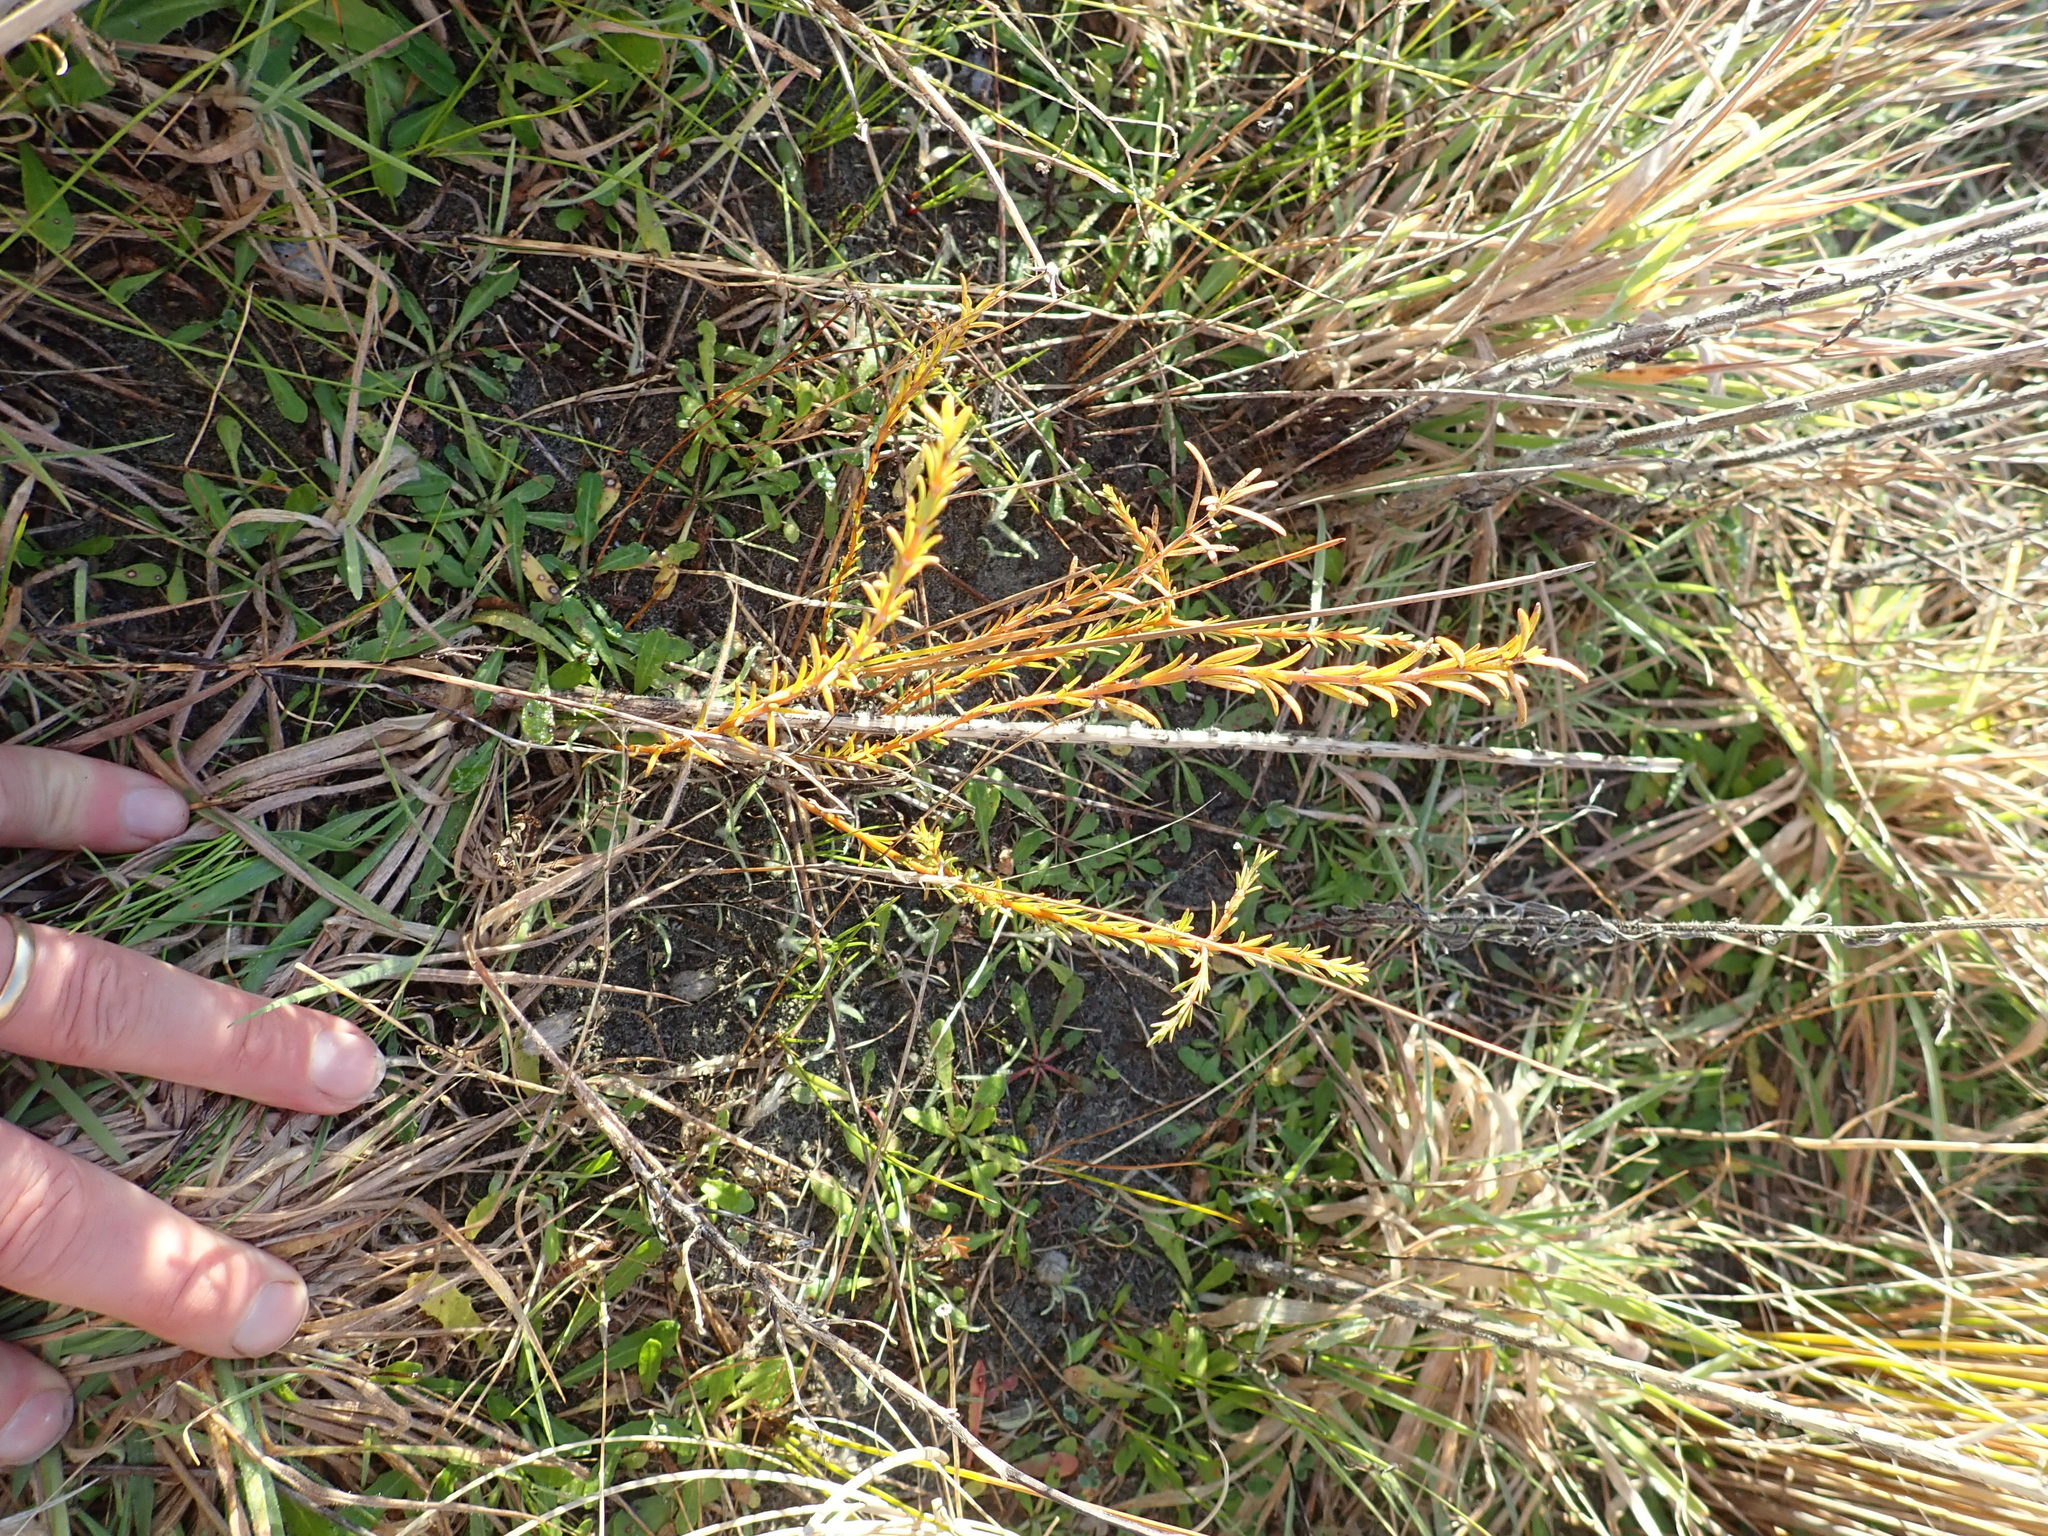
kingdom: Plantae
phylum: Tracheophyta
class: Magnoliopsida
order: Gentianales
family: Rubiaceae
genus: Coprosma
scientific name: Coprosma acerosa
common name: Sand coprosma
